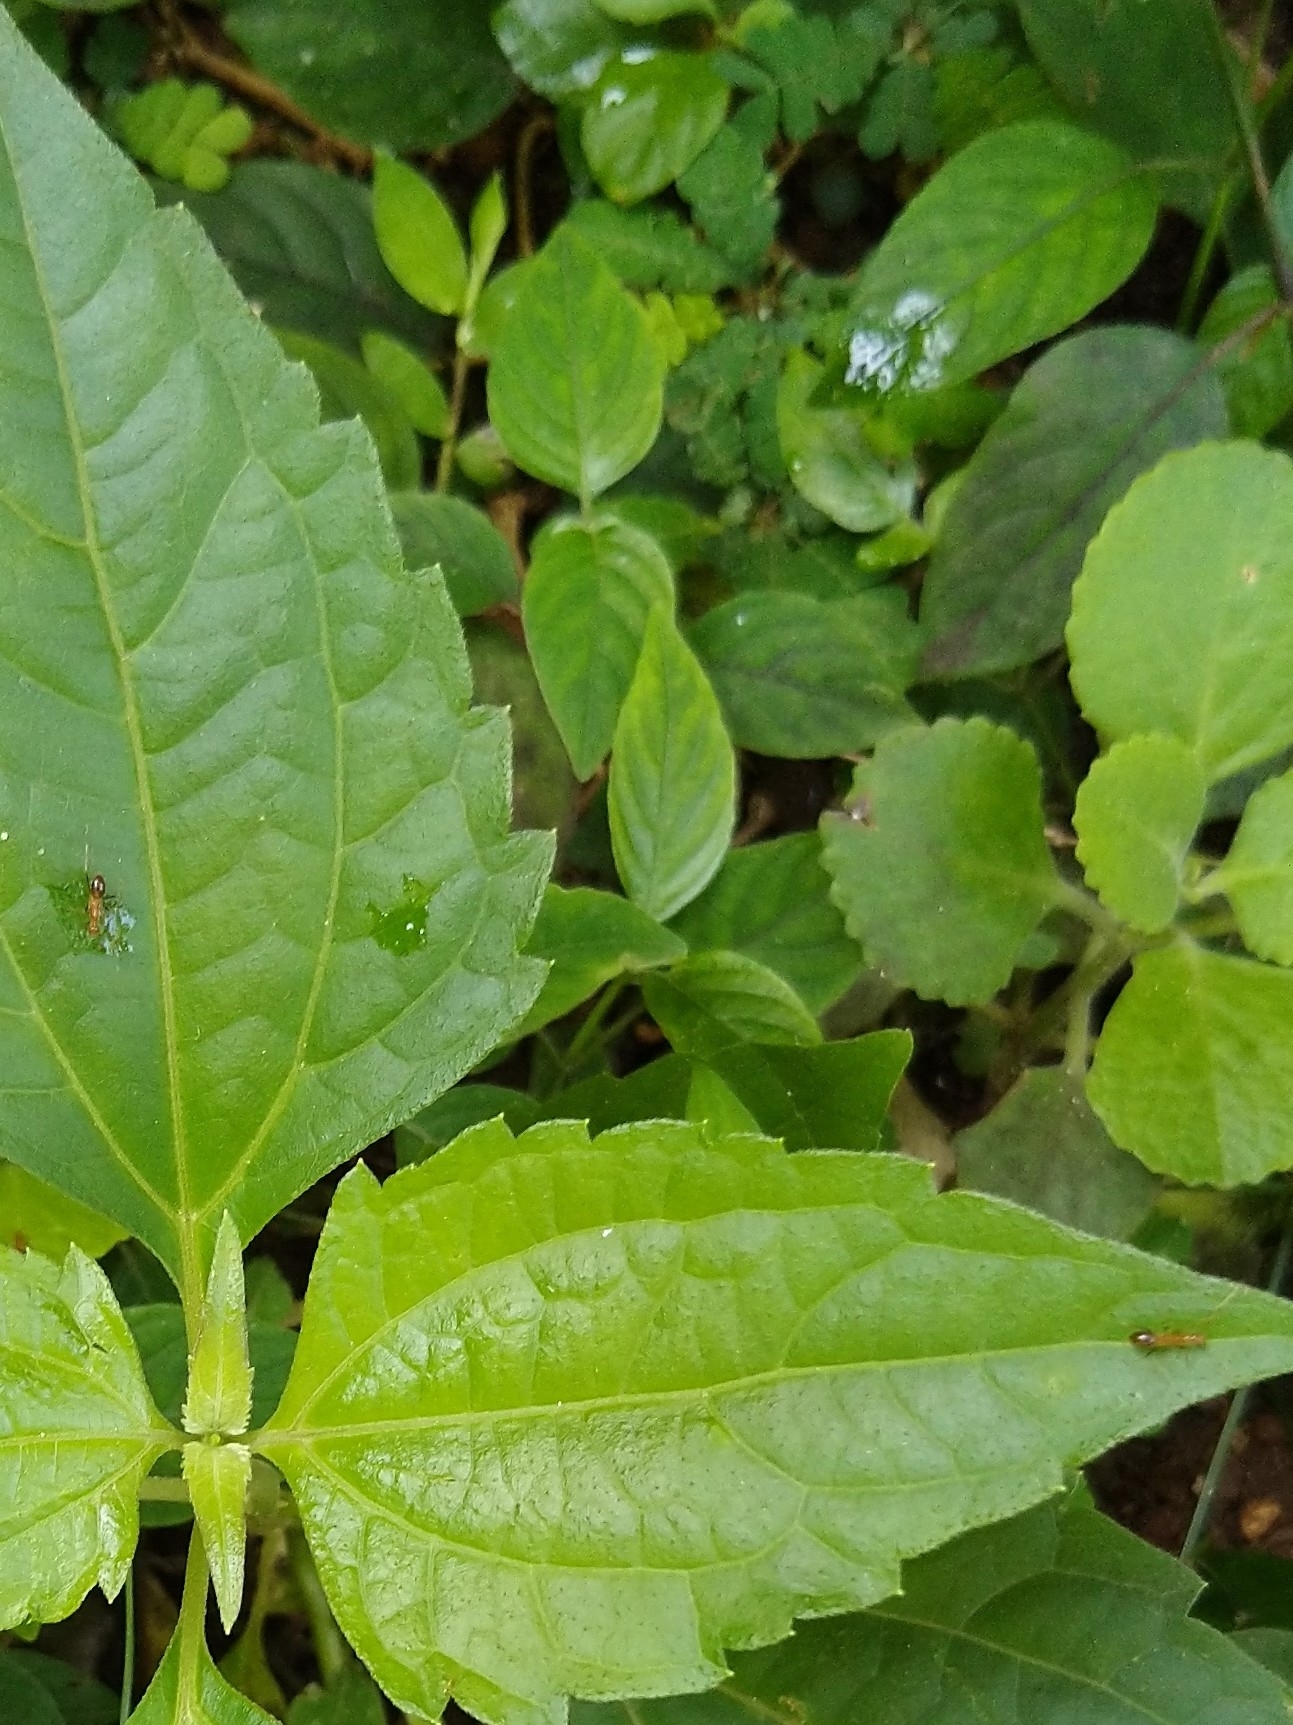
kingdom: Animalia
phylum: Arthropoda
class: Insecta
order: Hymenoptera
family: Formicidae
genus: Anoplolepis
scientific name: Anoplolepis gracilipes
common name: Ant
